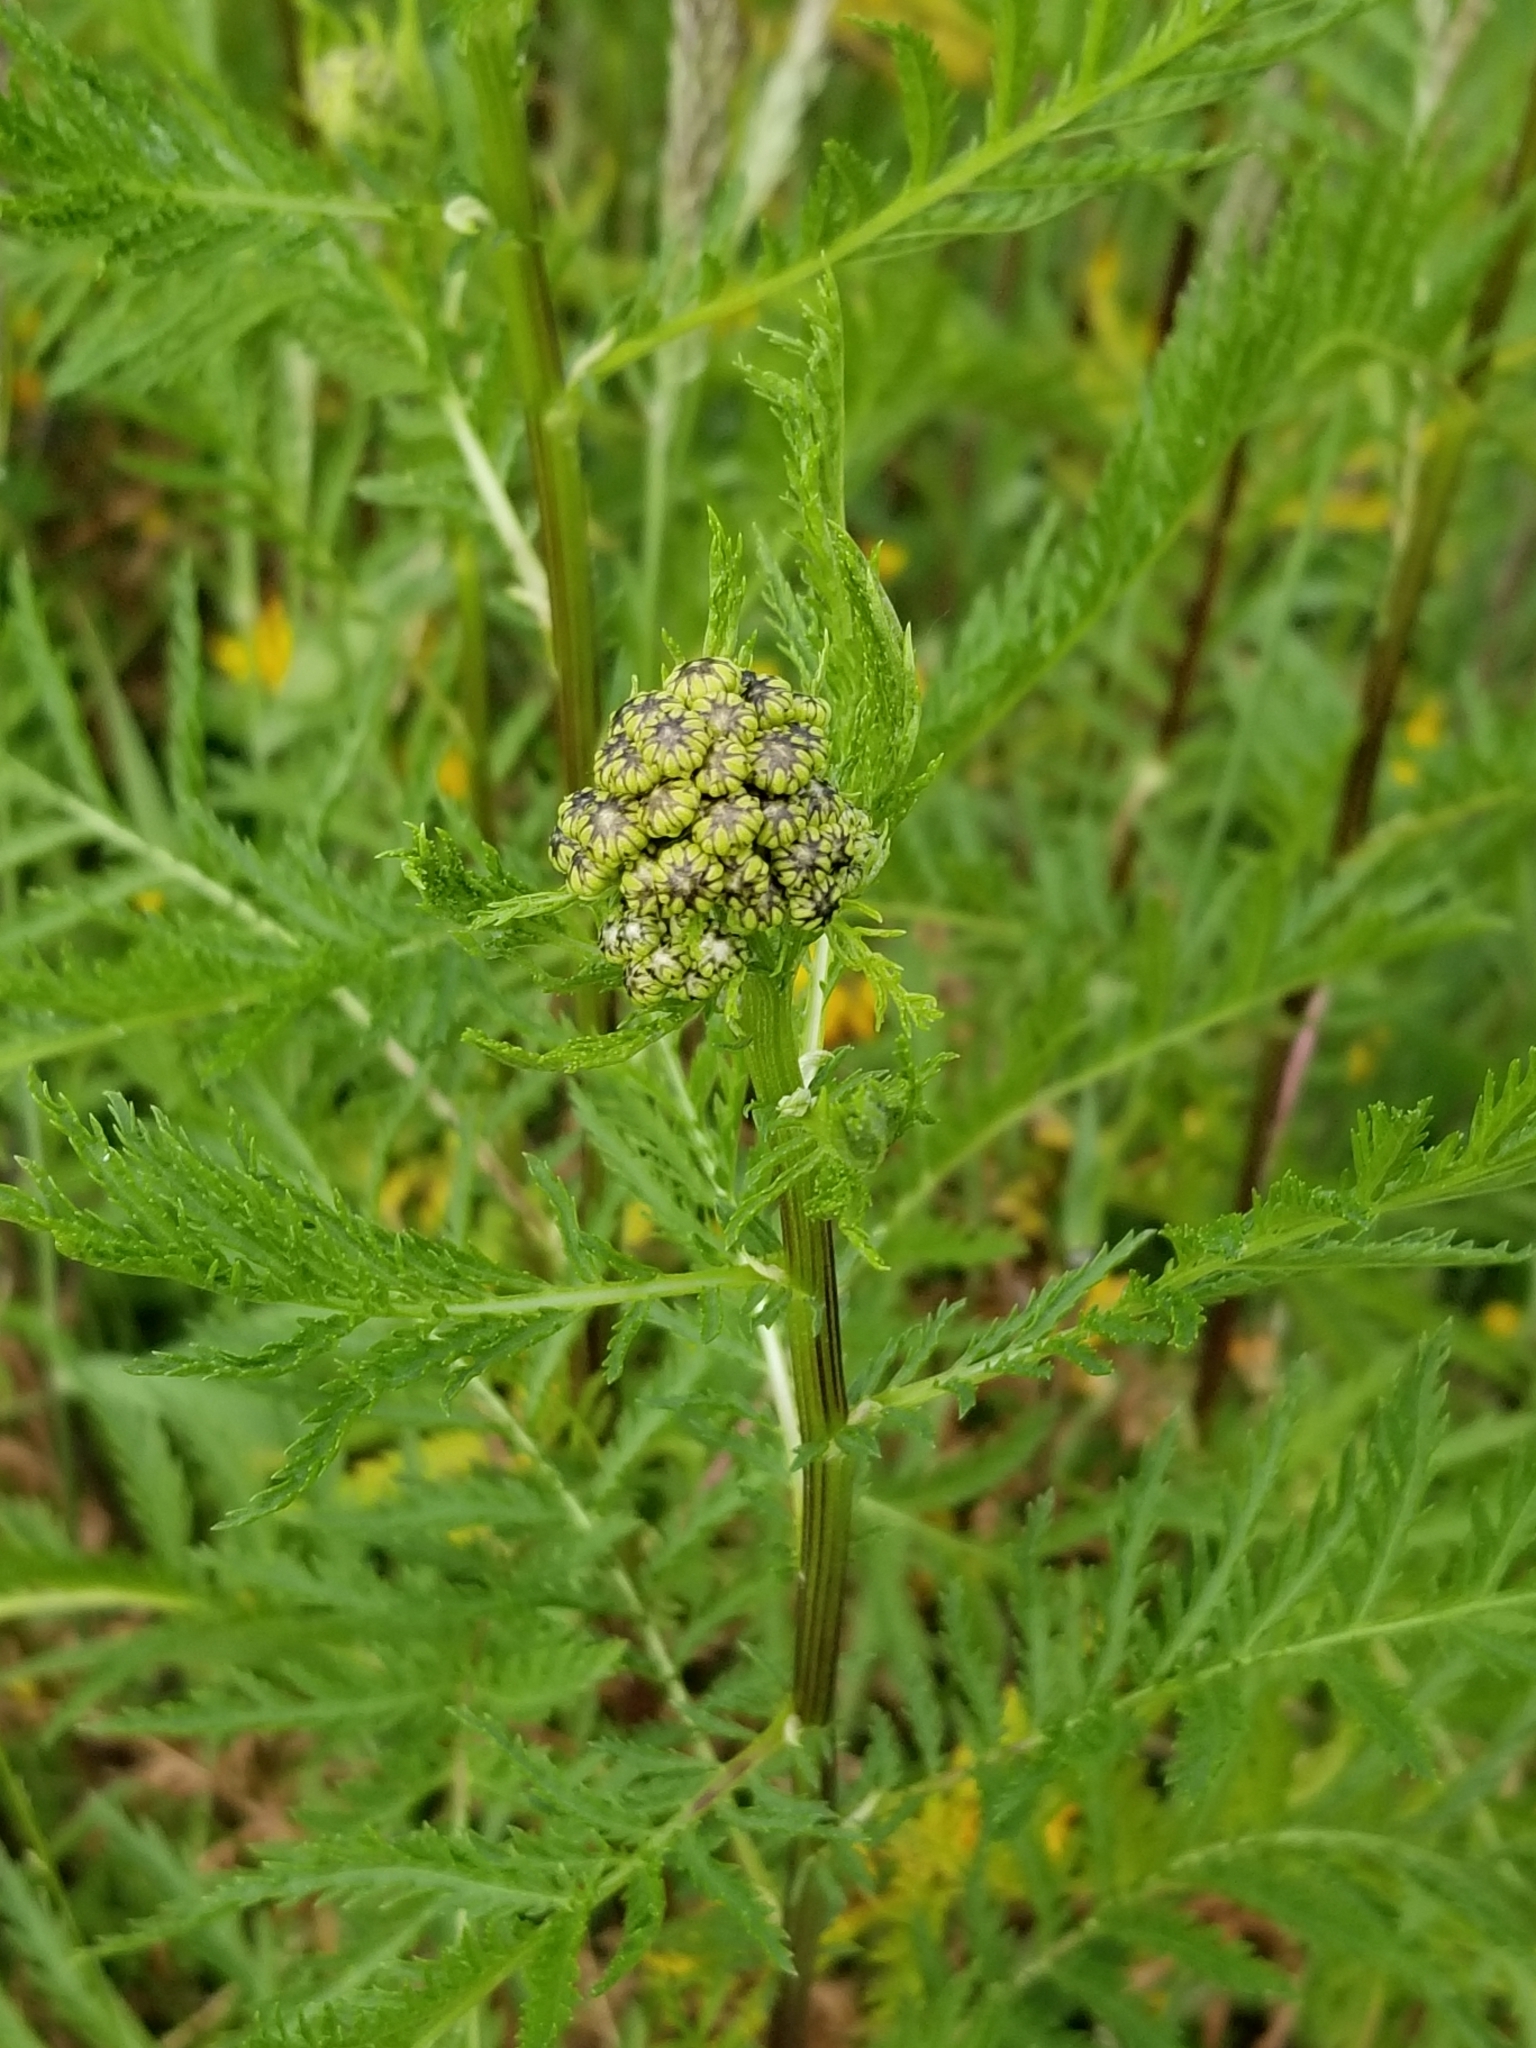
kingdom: Plantae
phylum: Tracheophyta
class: Magnoliopsida
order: Asterales
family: Asteraceae
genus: Tanacetum
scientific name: Tanacetum vulgare
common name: Common tansy
